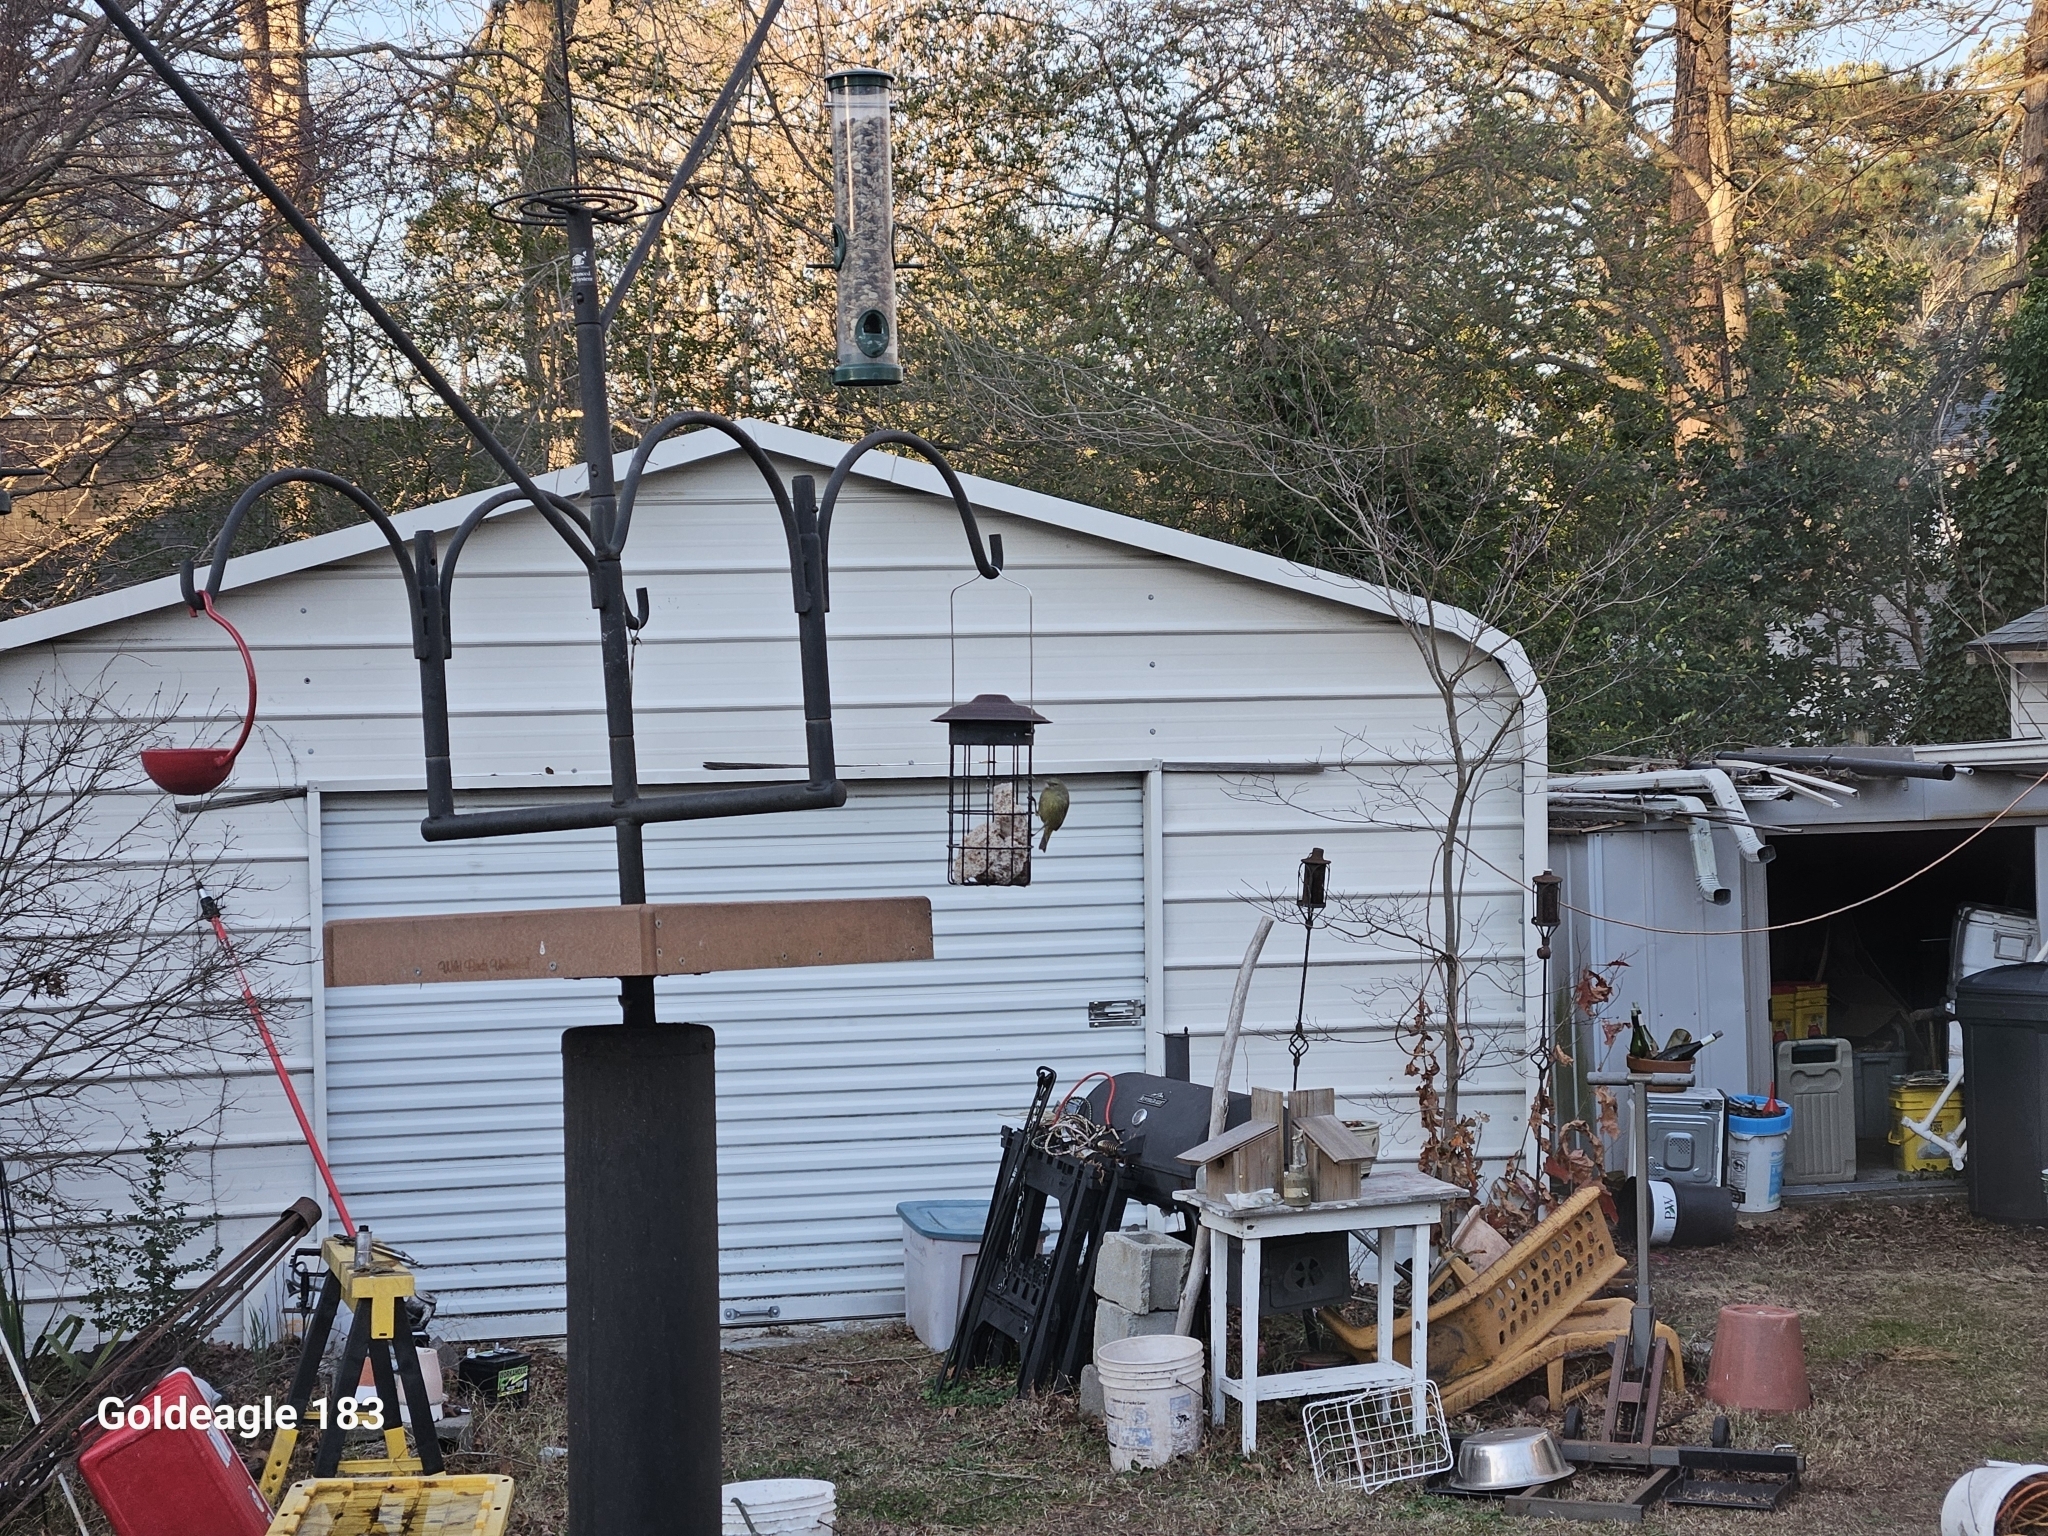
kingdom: Animalia
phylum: Chordata
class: Aves
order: Passeriformes
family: Parulidae
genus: Leiothlypis
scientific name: Leiothlypis celata
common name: Orange-crowned warbler
